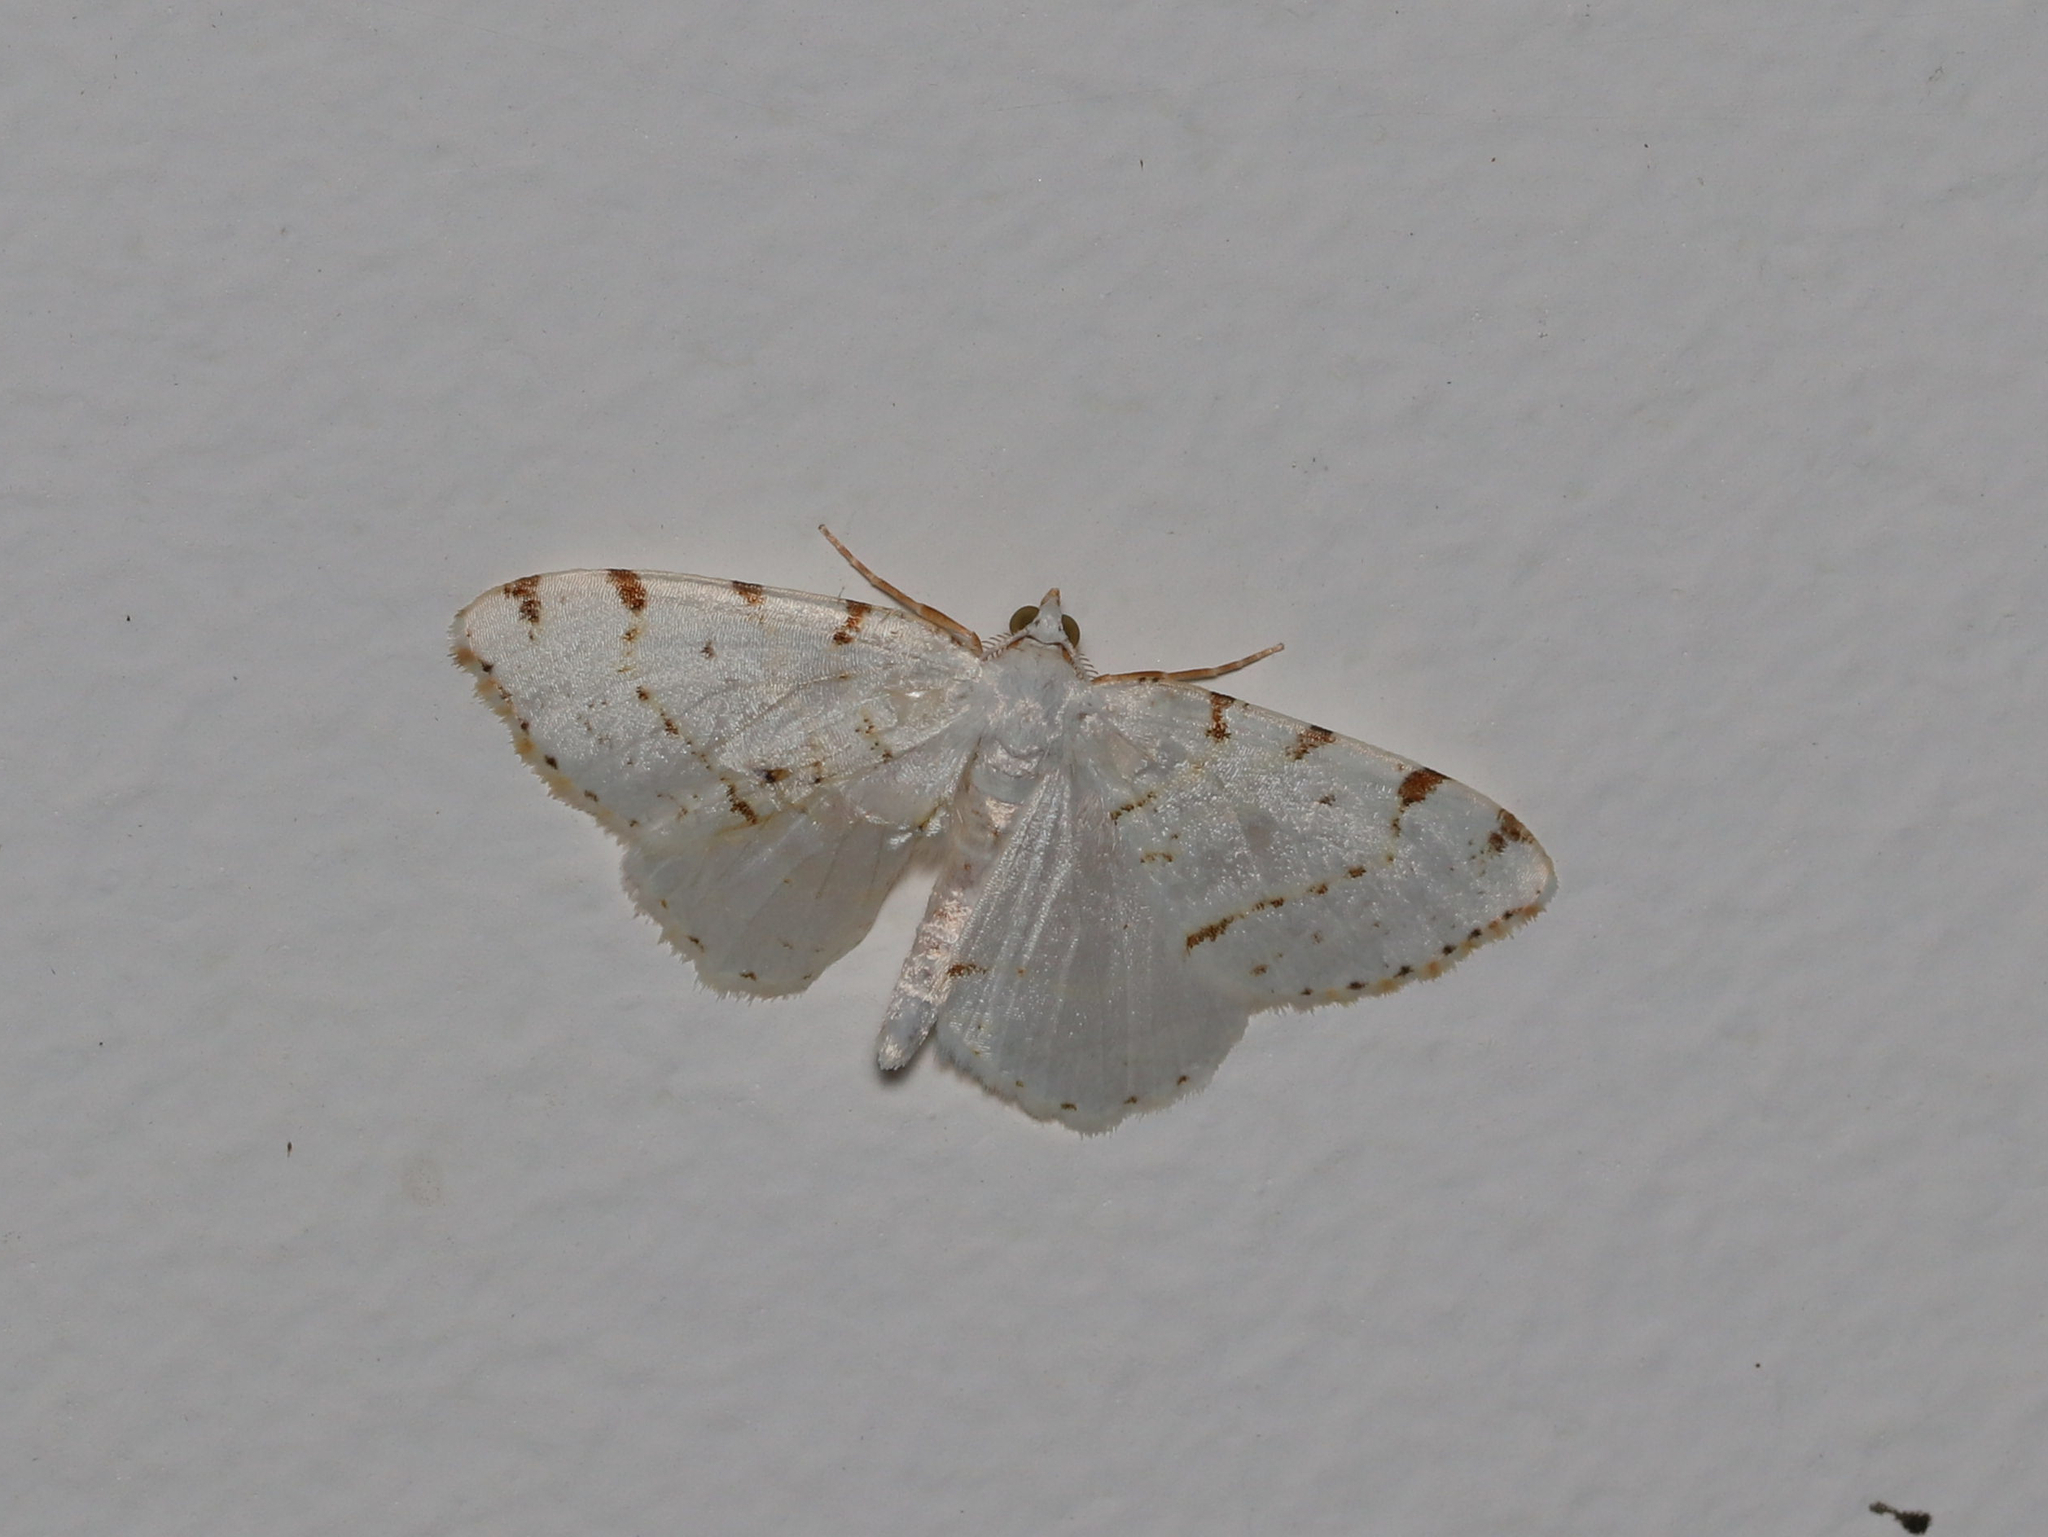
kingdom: Animalia
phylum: Arthropoda
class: Insecta
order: Lepidoptera
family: Geometridae
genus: Macaria
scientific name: Macaria pustularia
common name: Lesser maple spanworm moth
